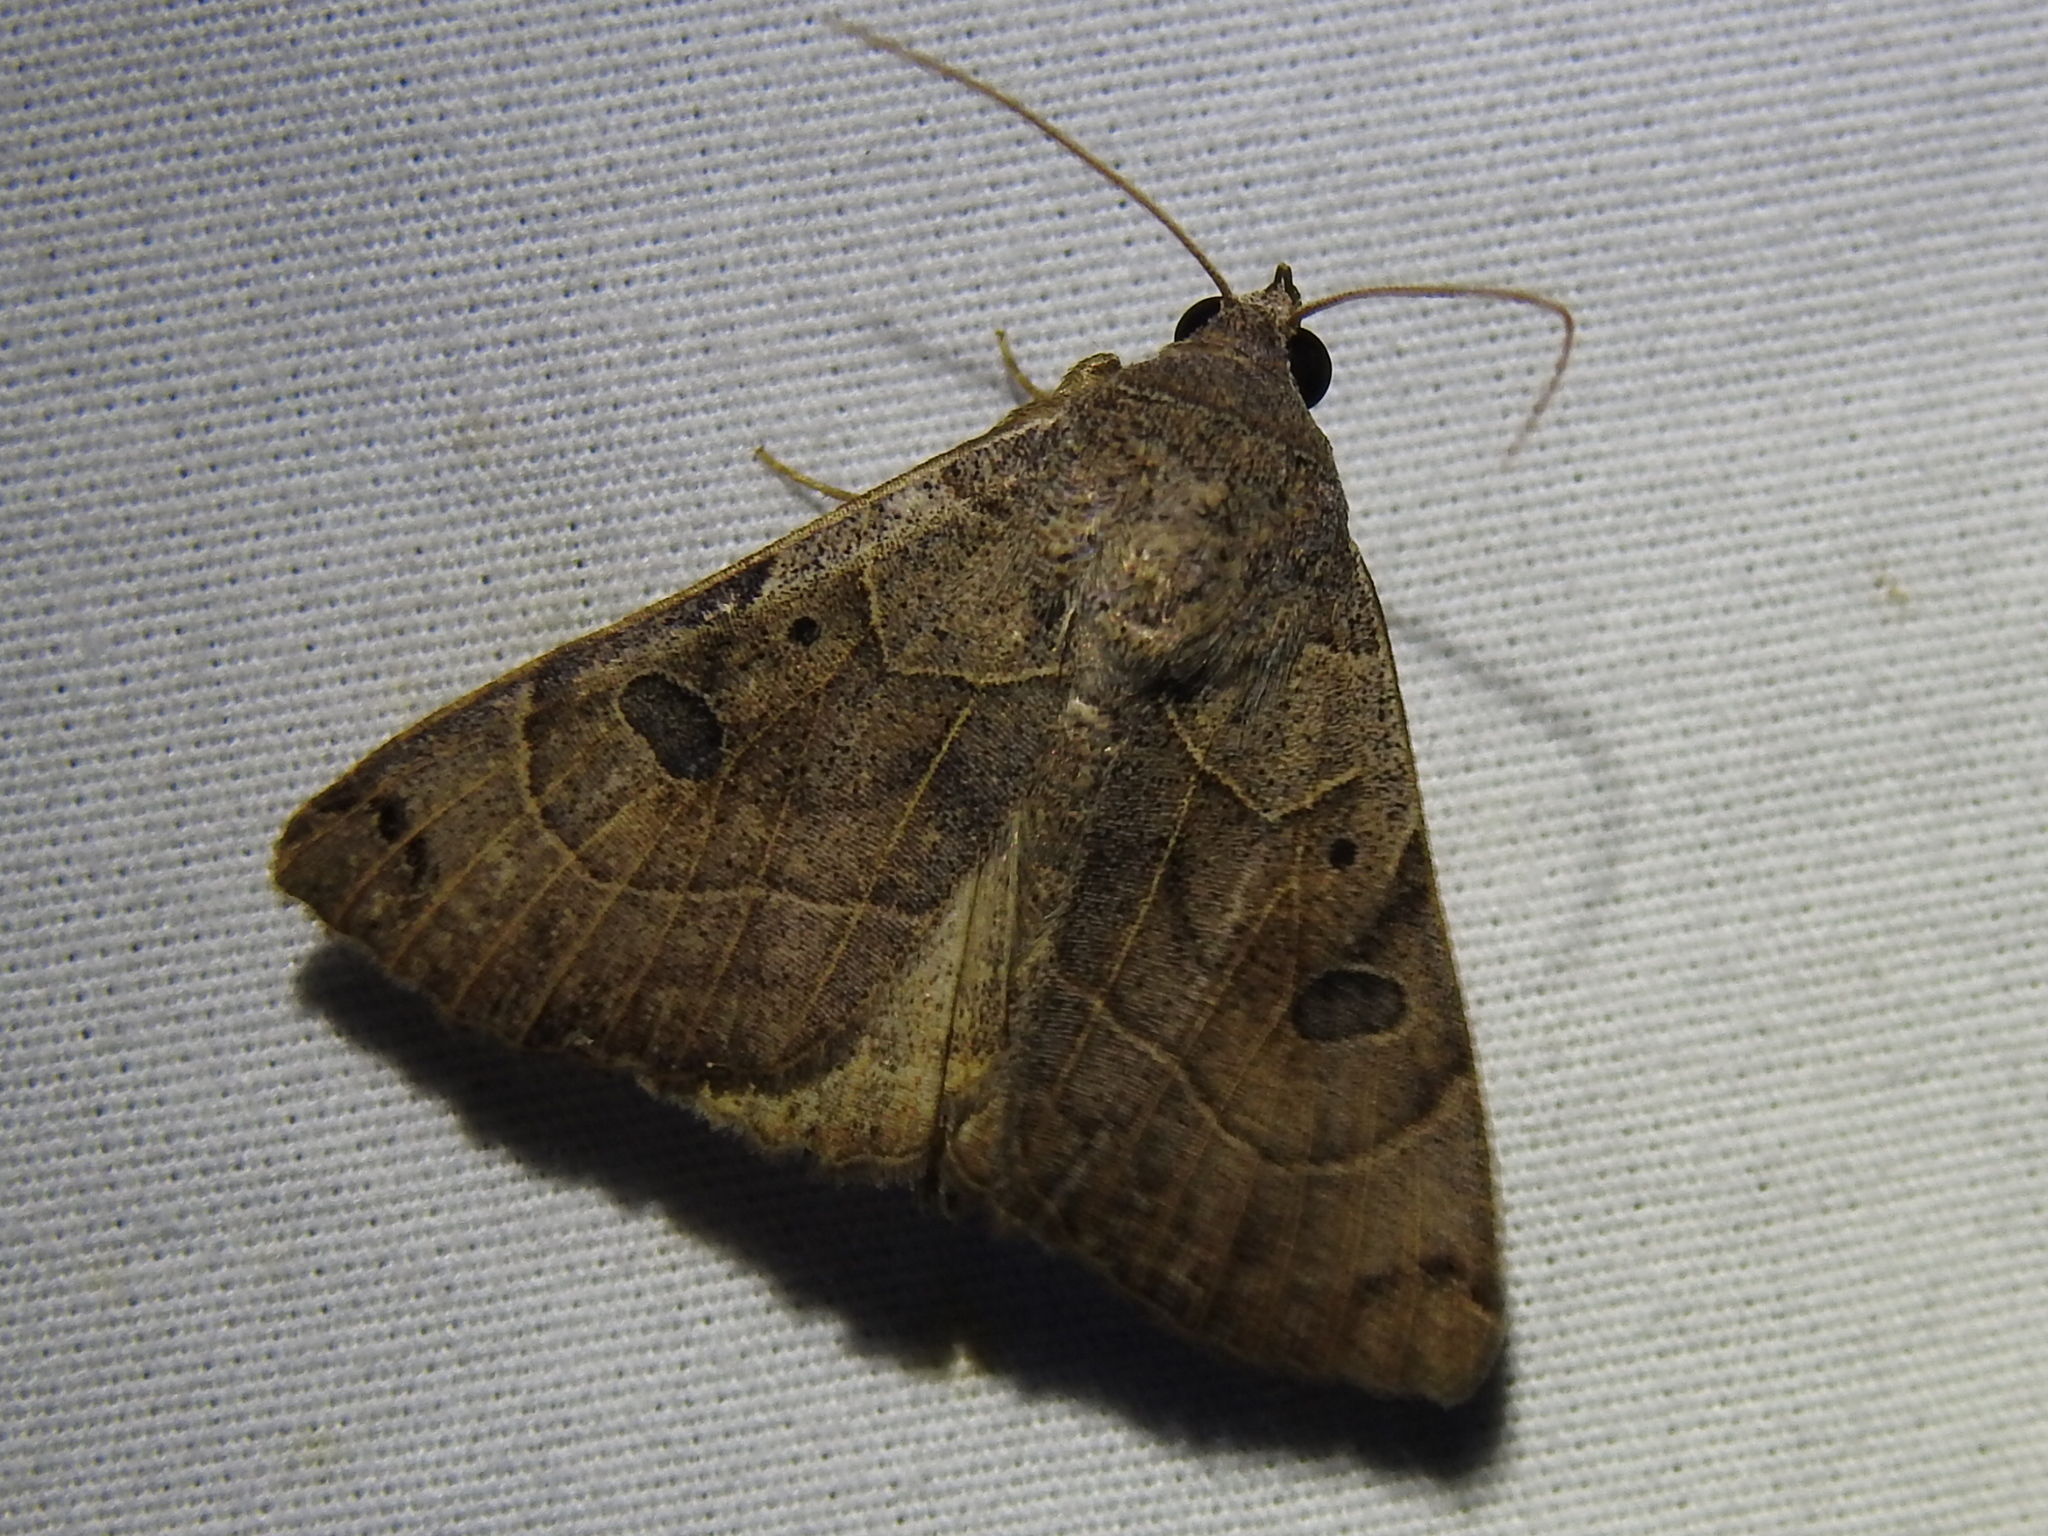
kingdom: Animalia
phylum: Arthropoda
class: Insecta
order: Lepidoptera
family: Erebidae
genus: Isogona
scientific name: Isogona scindens
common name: Owlet moth
